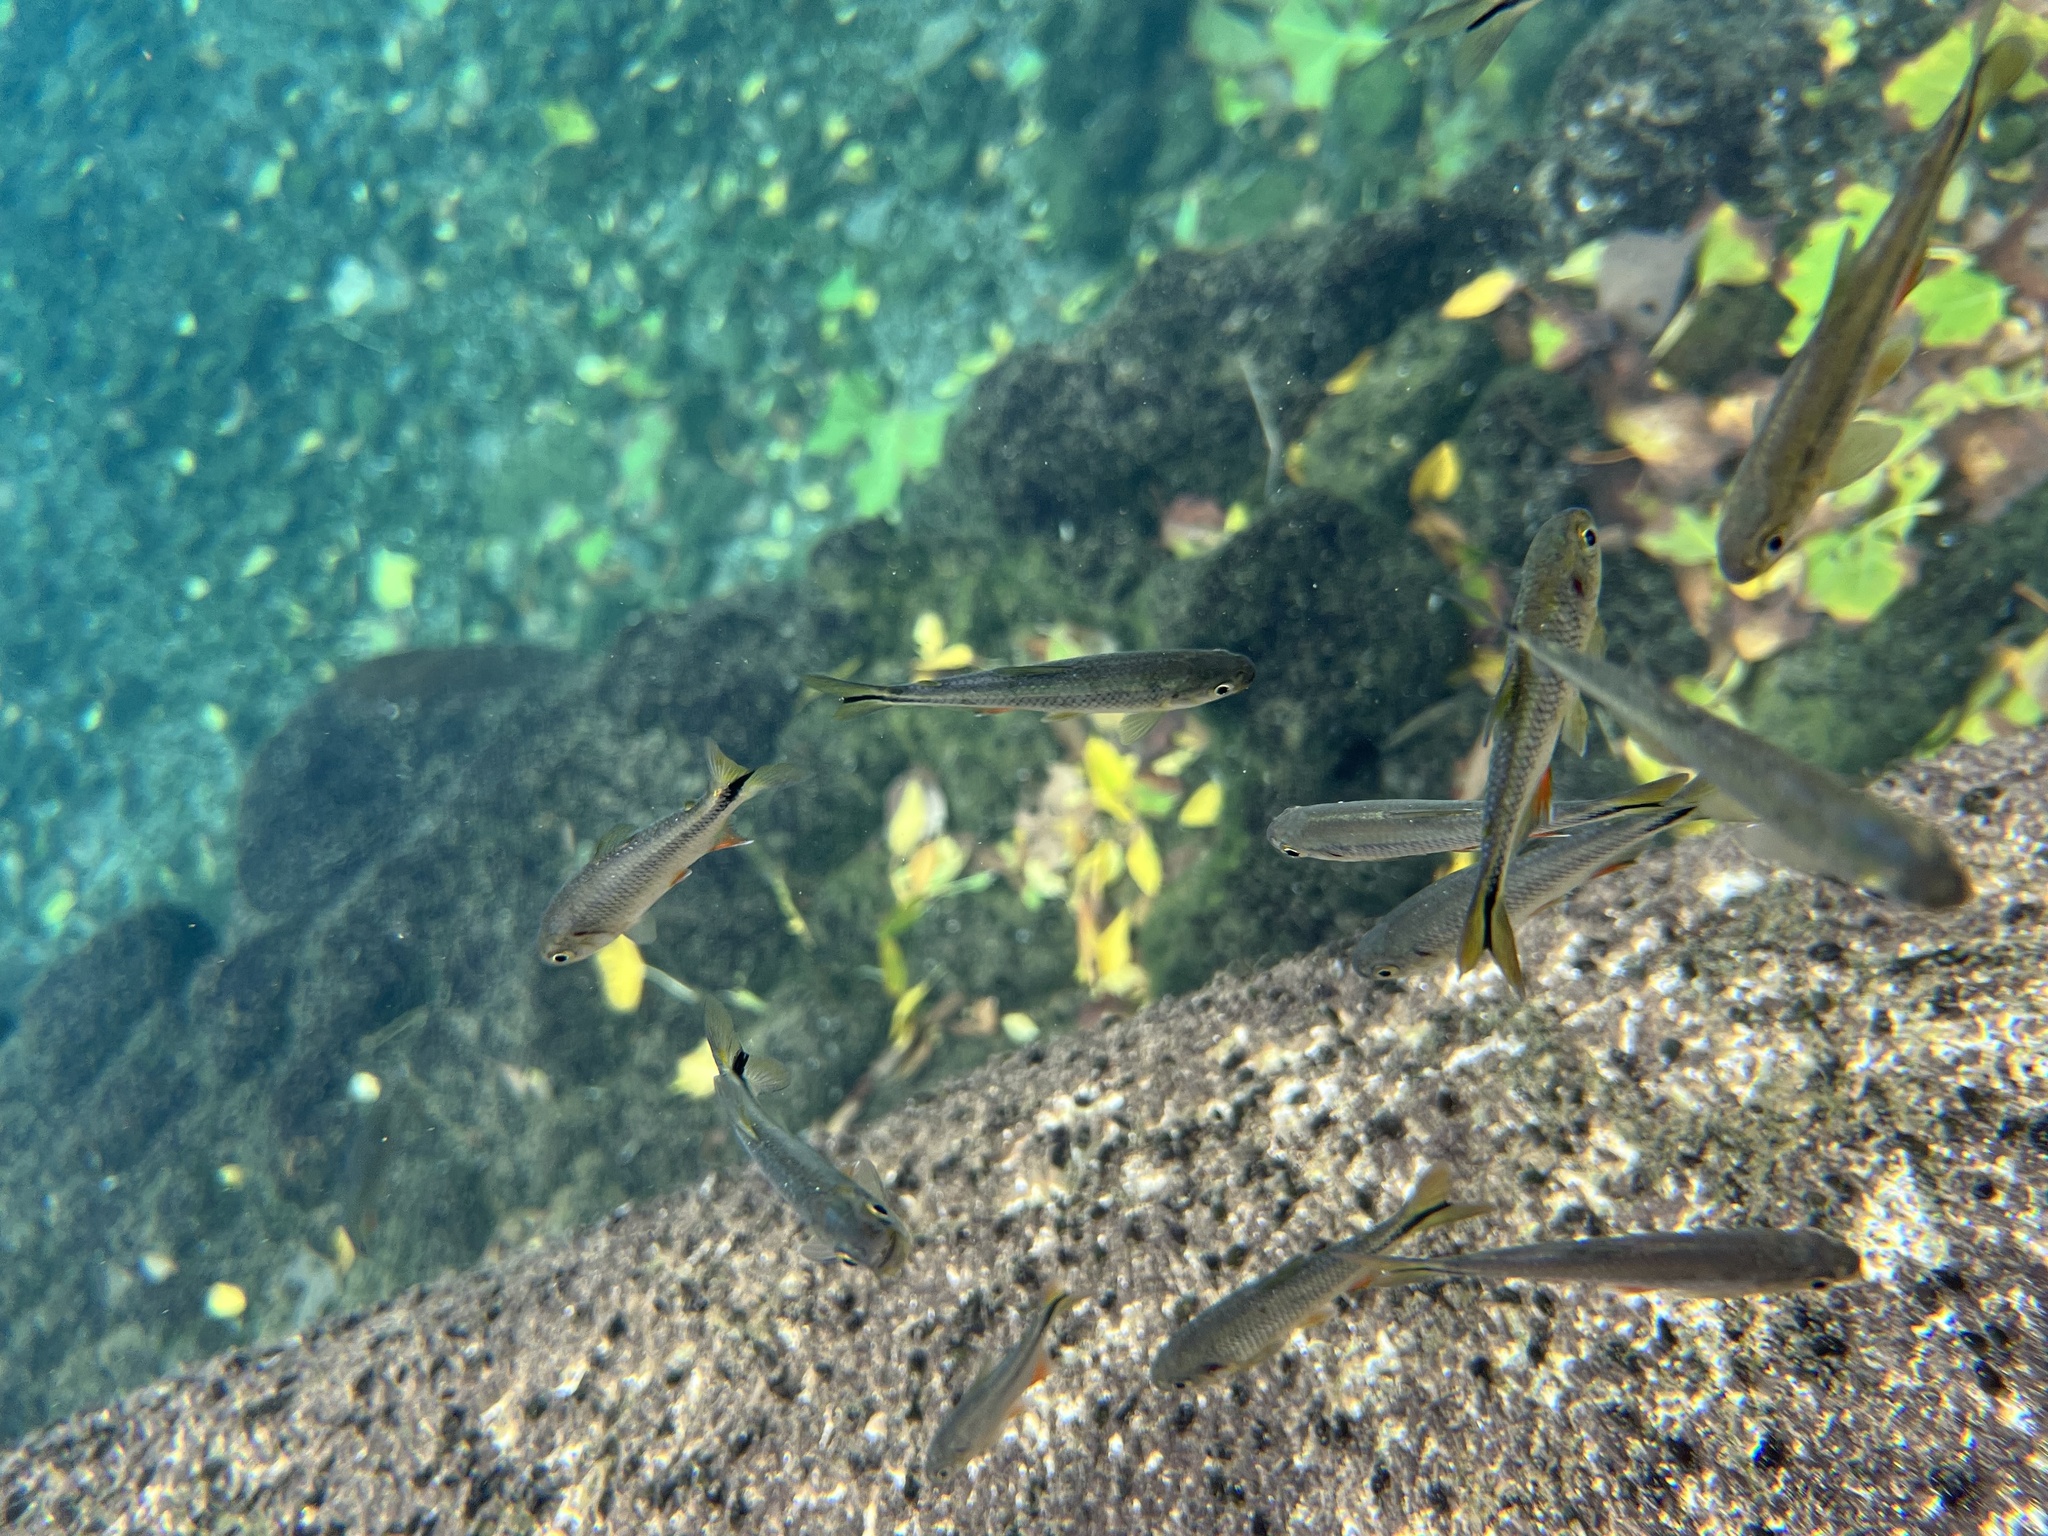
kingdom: Animalia
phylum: Chordata
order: Characiformes
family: Characidae
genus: Astyanax
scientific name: Astyanax mexicanus
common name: Mexican tetra
